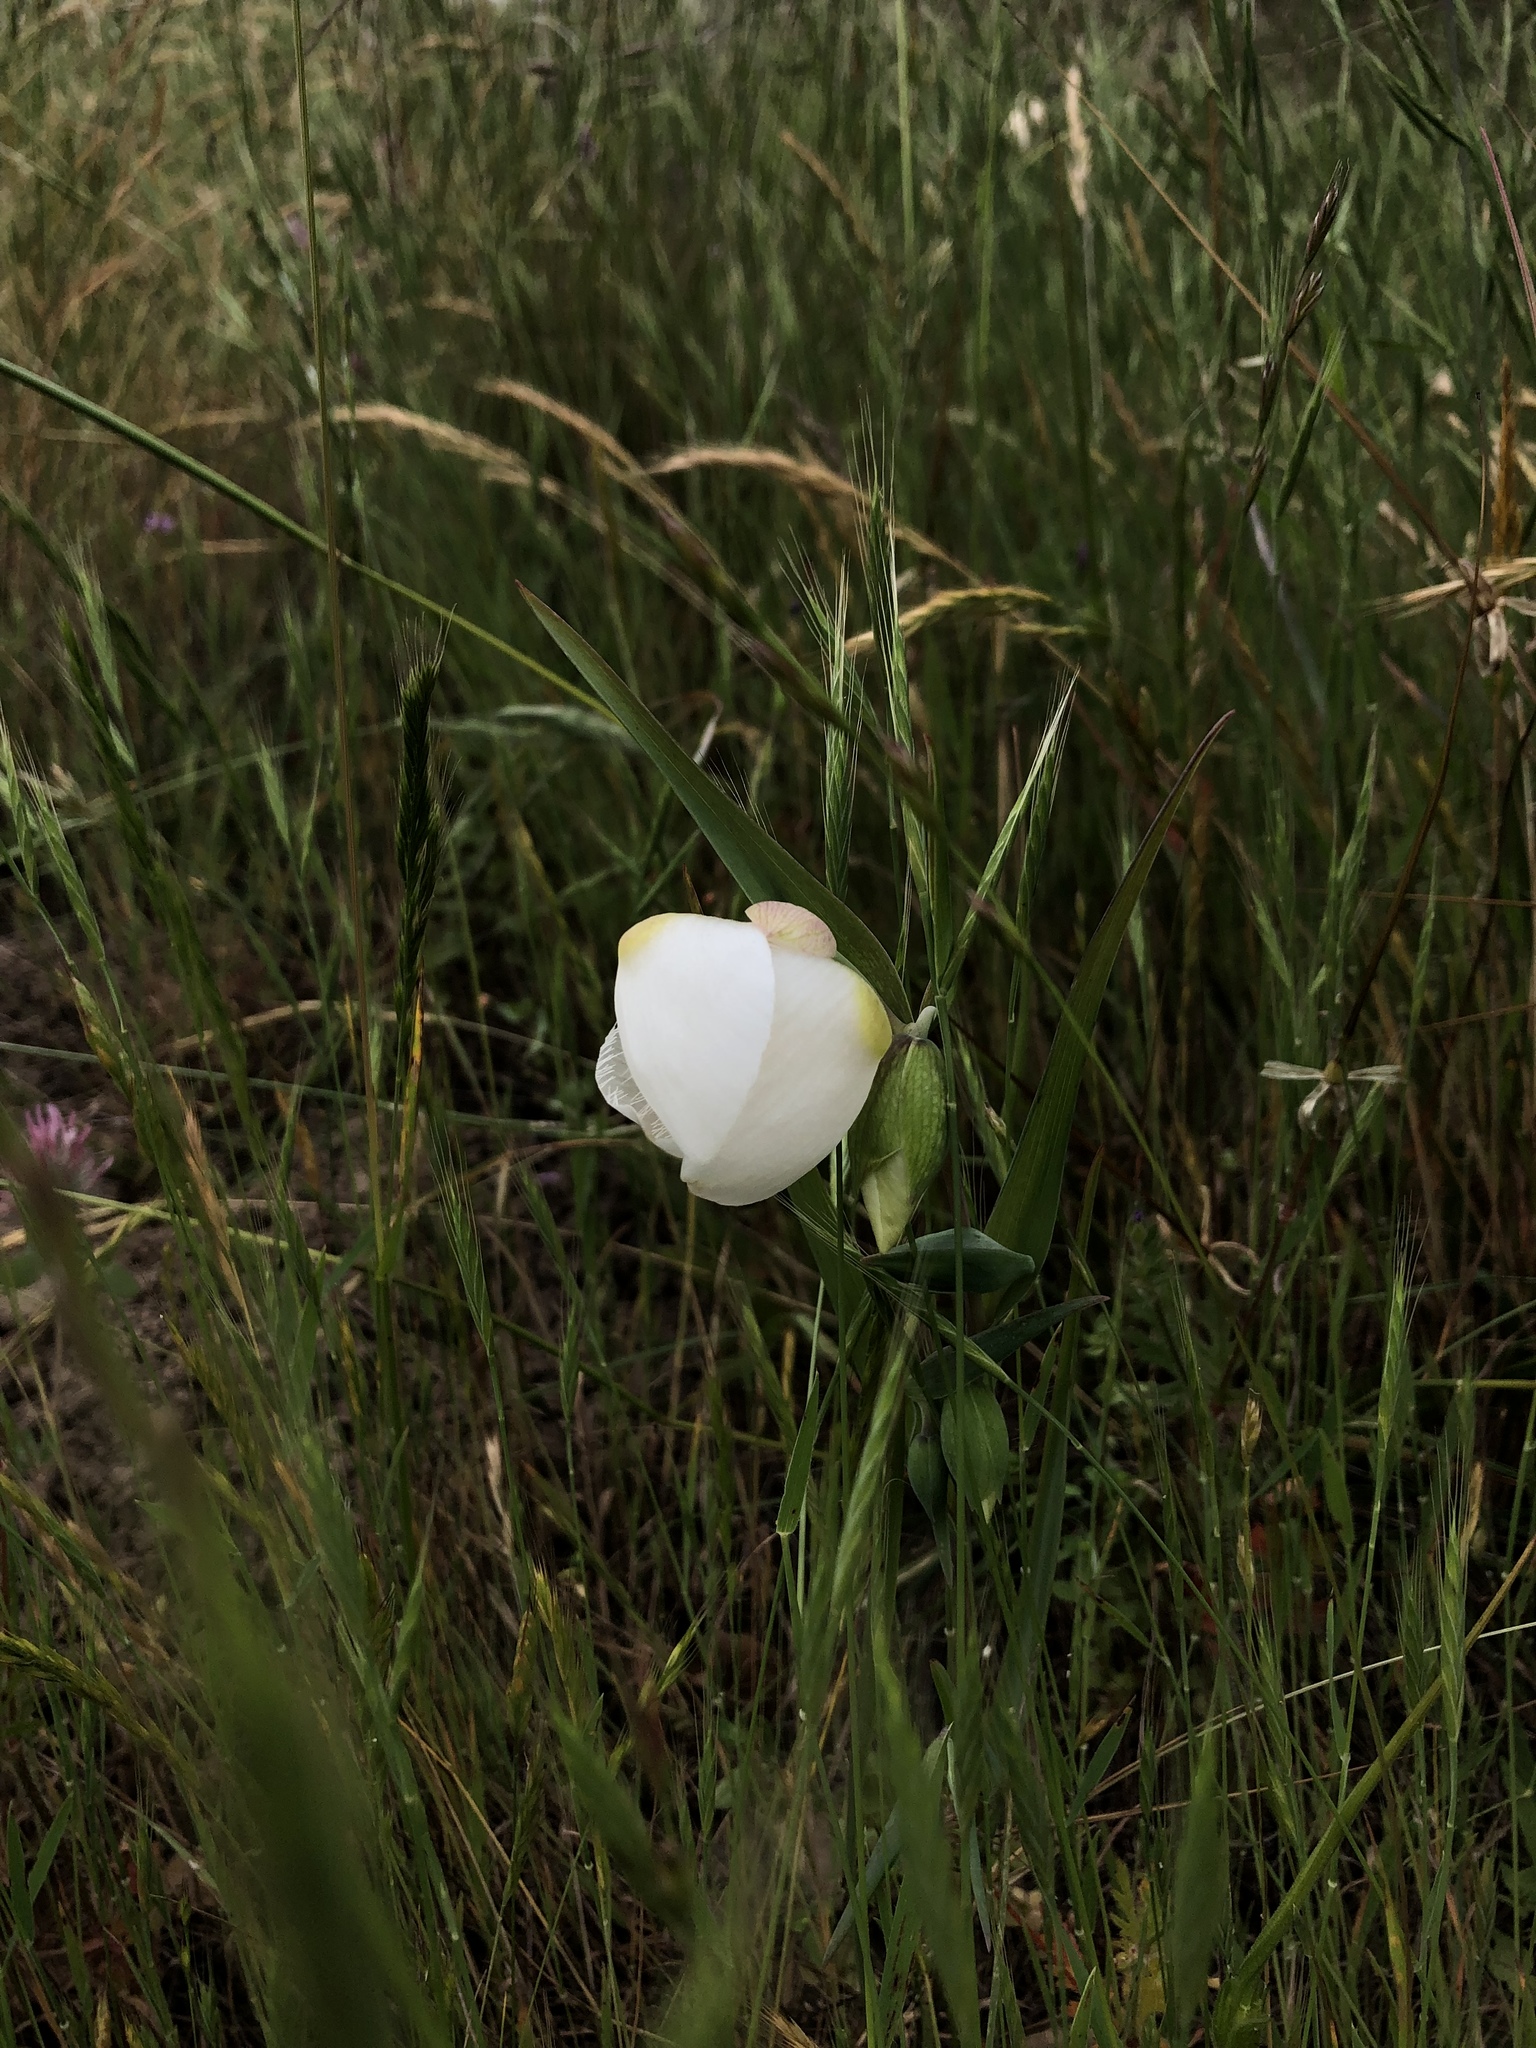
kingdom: Plantae
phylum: Tracheophyta
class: Liliopsida
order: Liliales
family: Liliaceae
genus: Calochortus
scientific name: Calochortus albus
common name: Fairy-lantern
